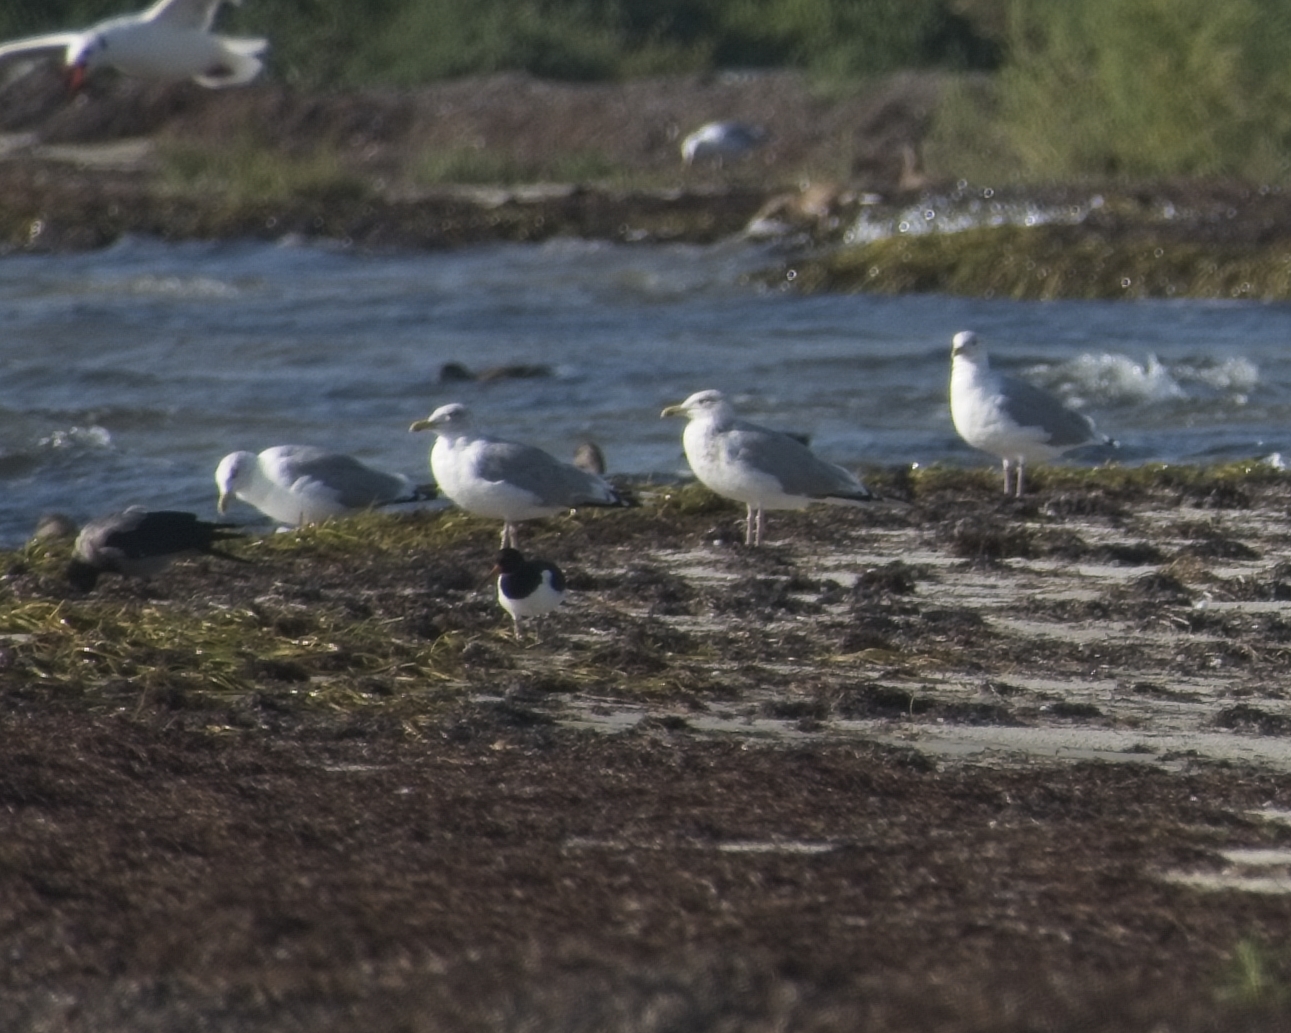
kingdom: Animalia
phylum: Chordata
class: Aves
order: Charadriiformes
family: Laridae
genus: Larus
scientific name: Larus argentatus
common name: Herring gull
